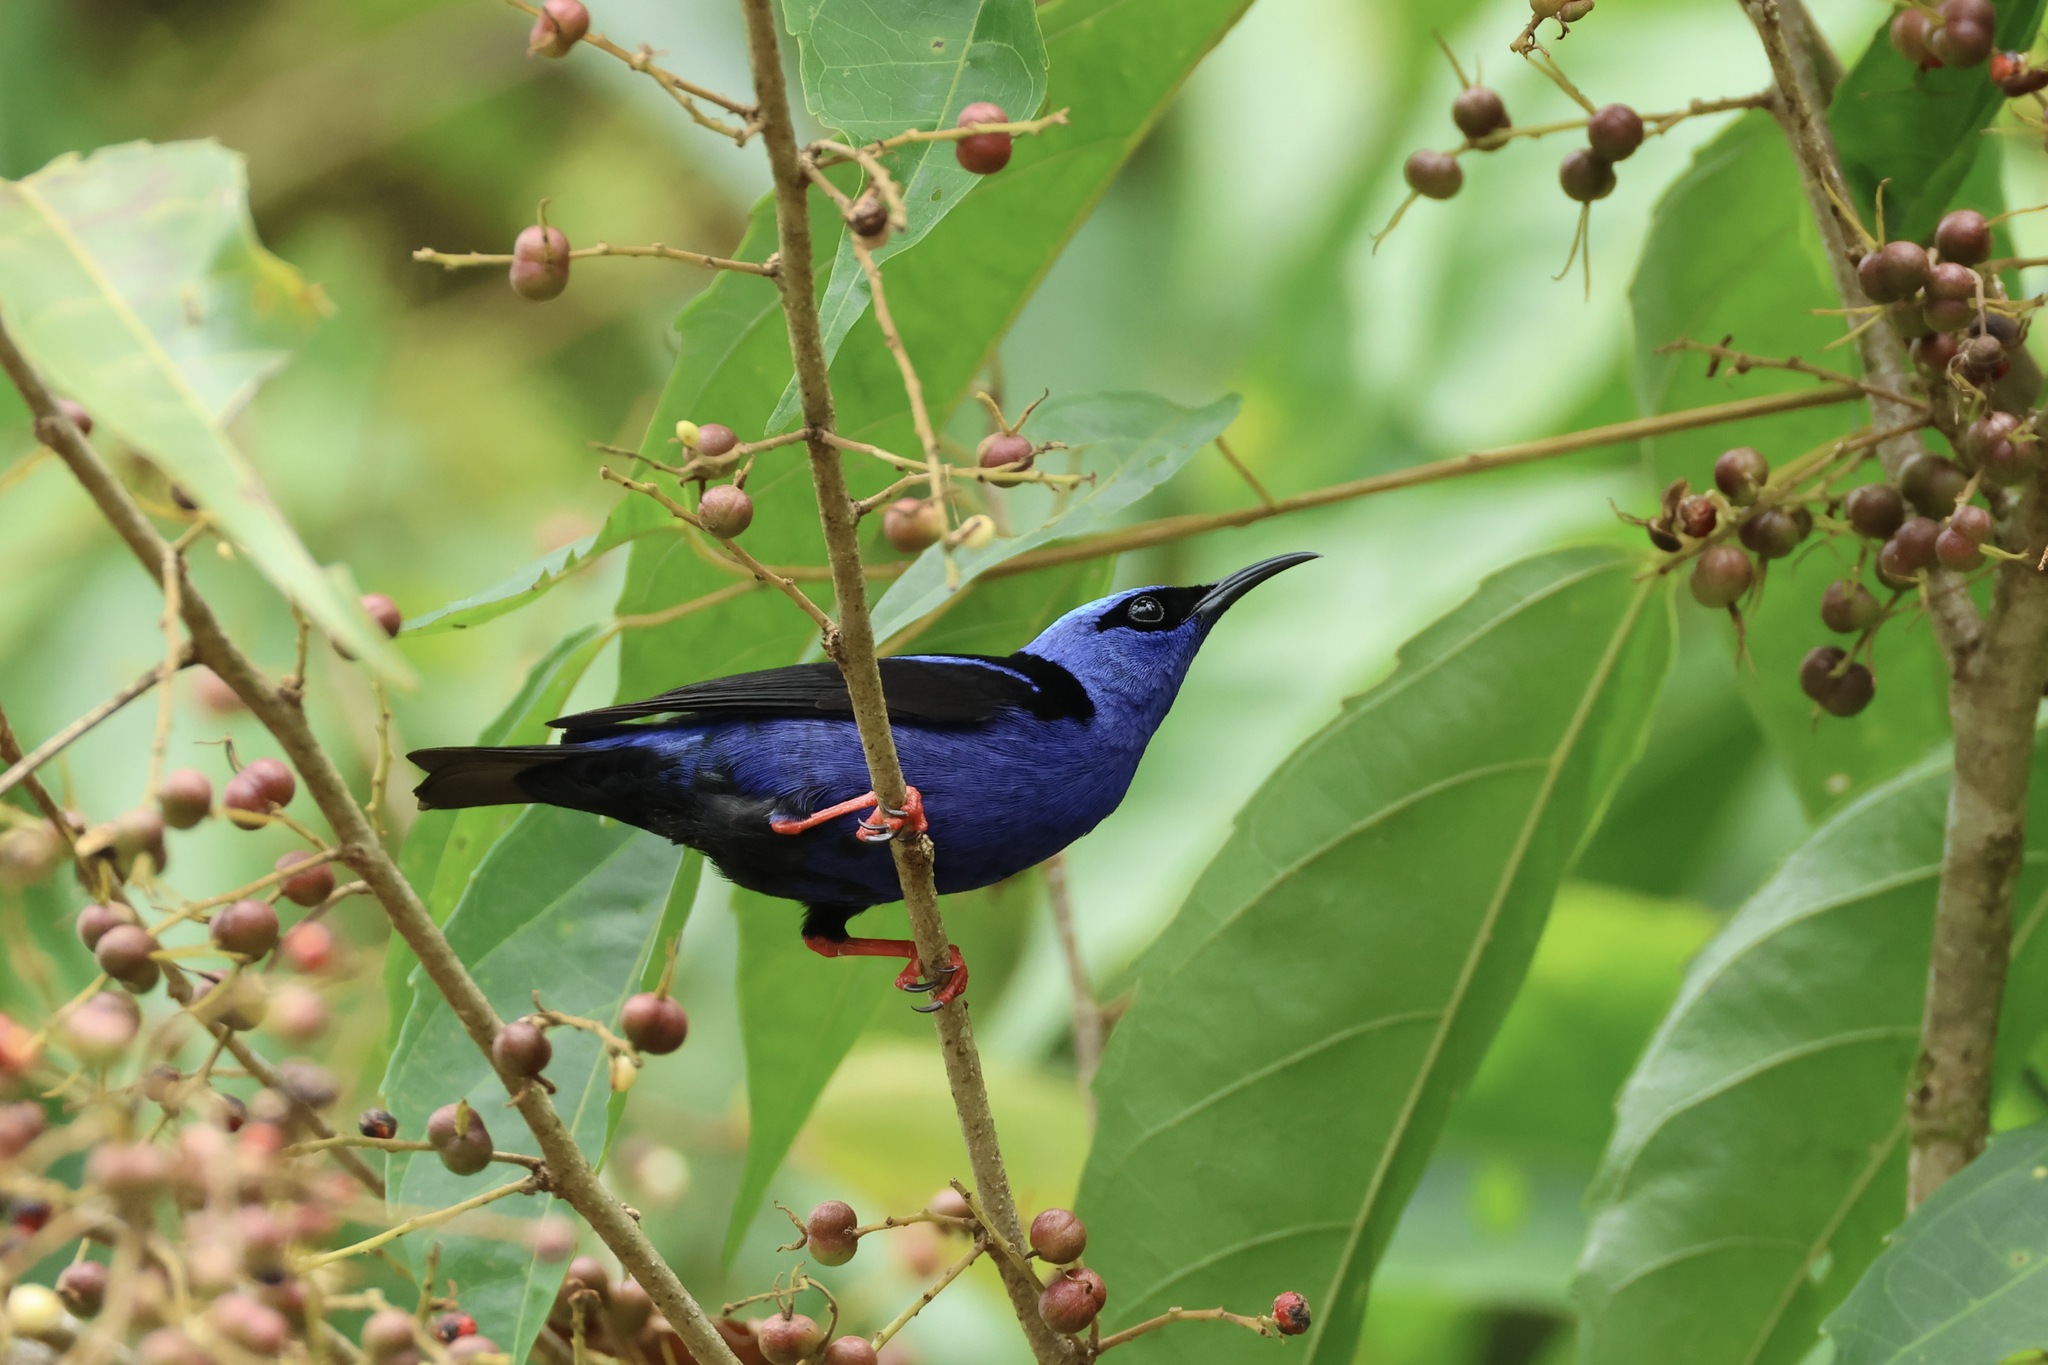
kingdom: Animalia
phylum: Chordata
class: Aves
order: Passeriformes
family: Thraupidae
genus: Cyanerpes
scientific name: Cyanerpes cyaneus
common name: Red-legged honeycreeper
